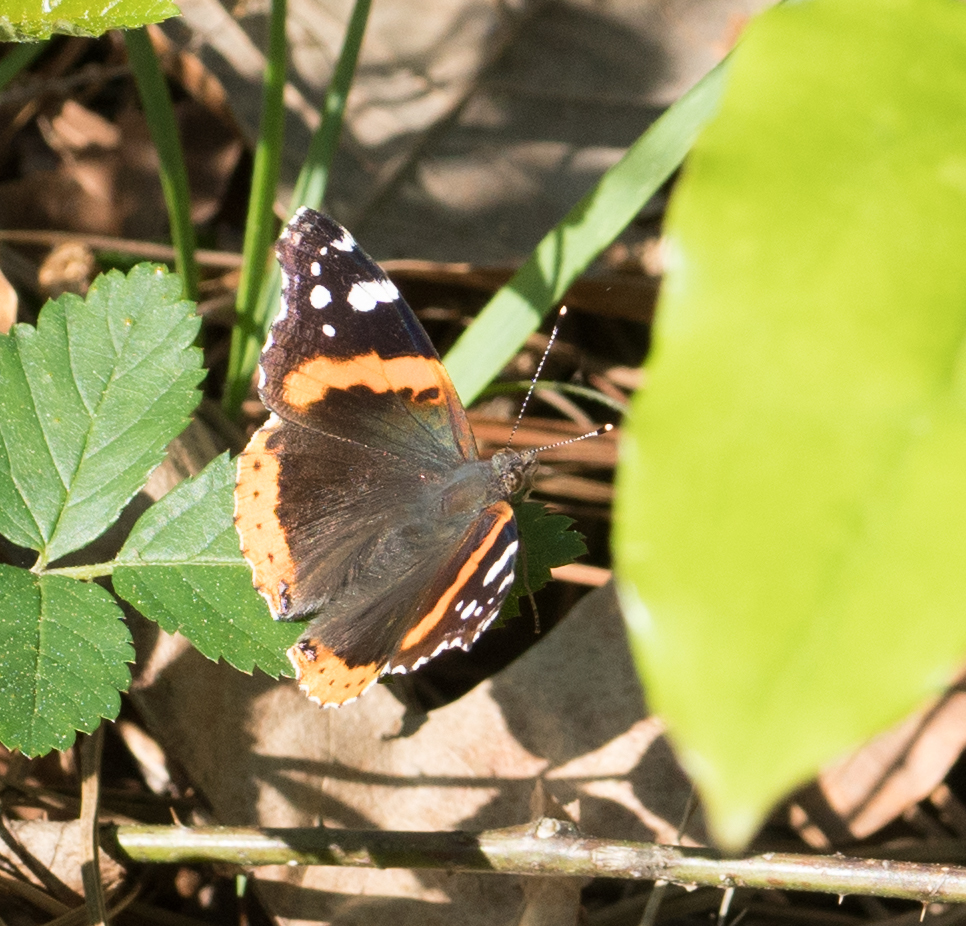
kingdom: Animalia
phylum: Arthropoda
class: Insecta
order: Lepidoptera
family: Nymphalidae
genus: Vanessa
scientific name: Vanessa atalanta
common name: Red admiral
